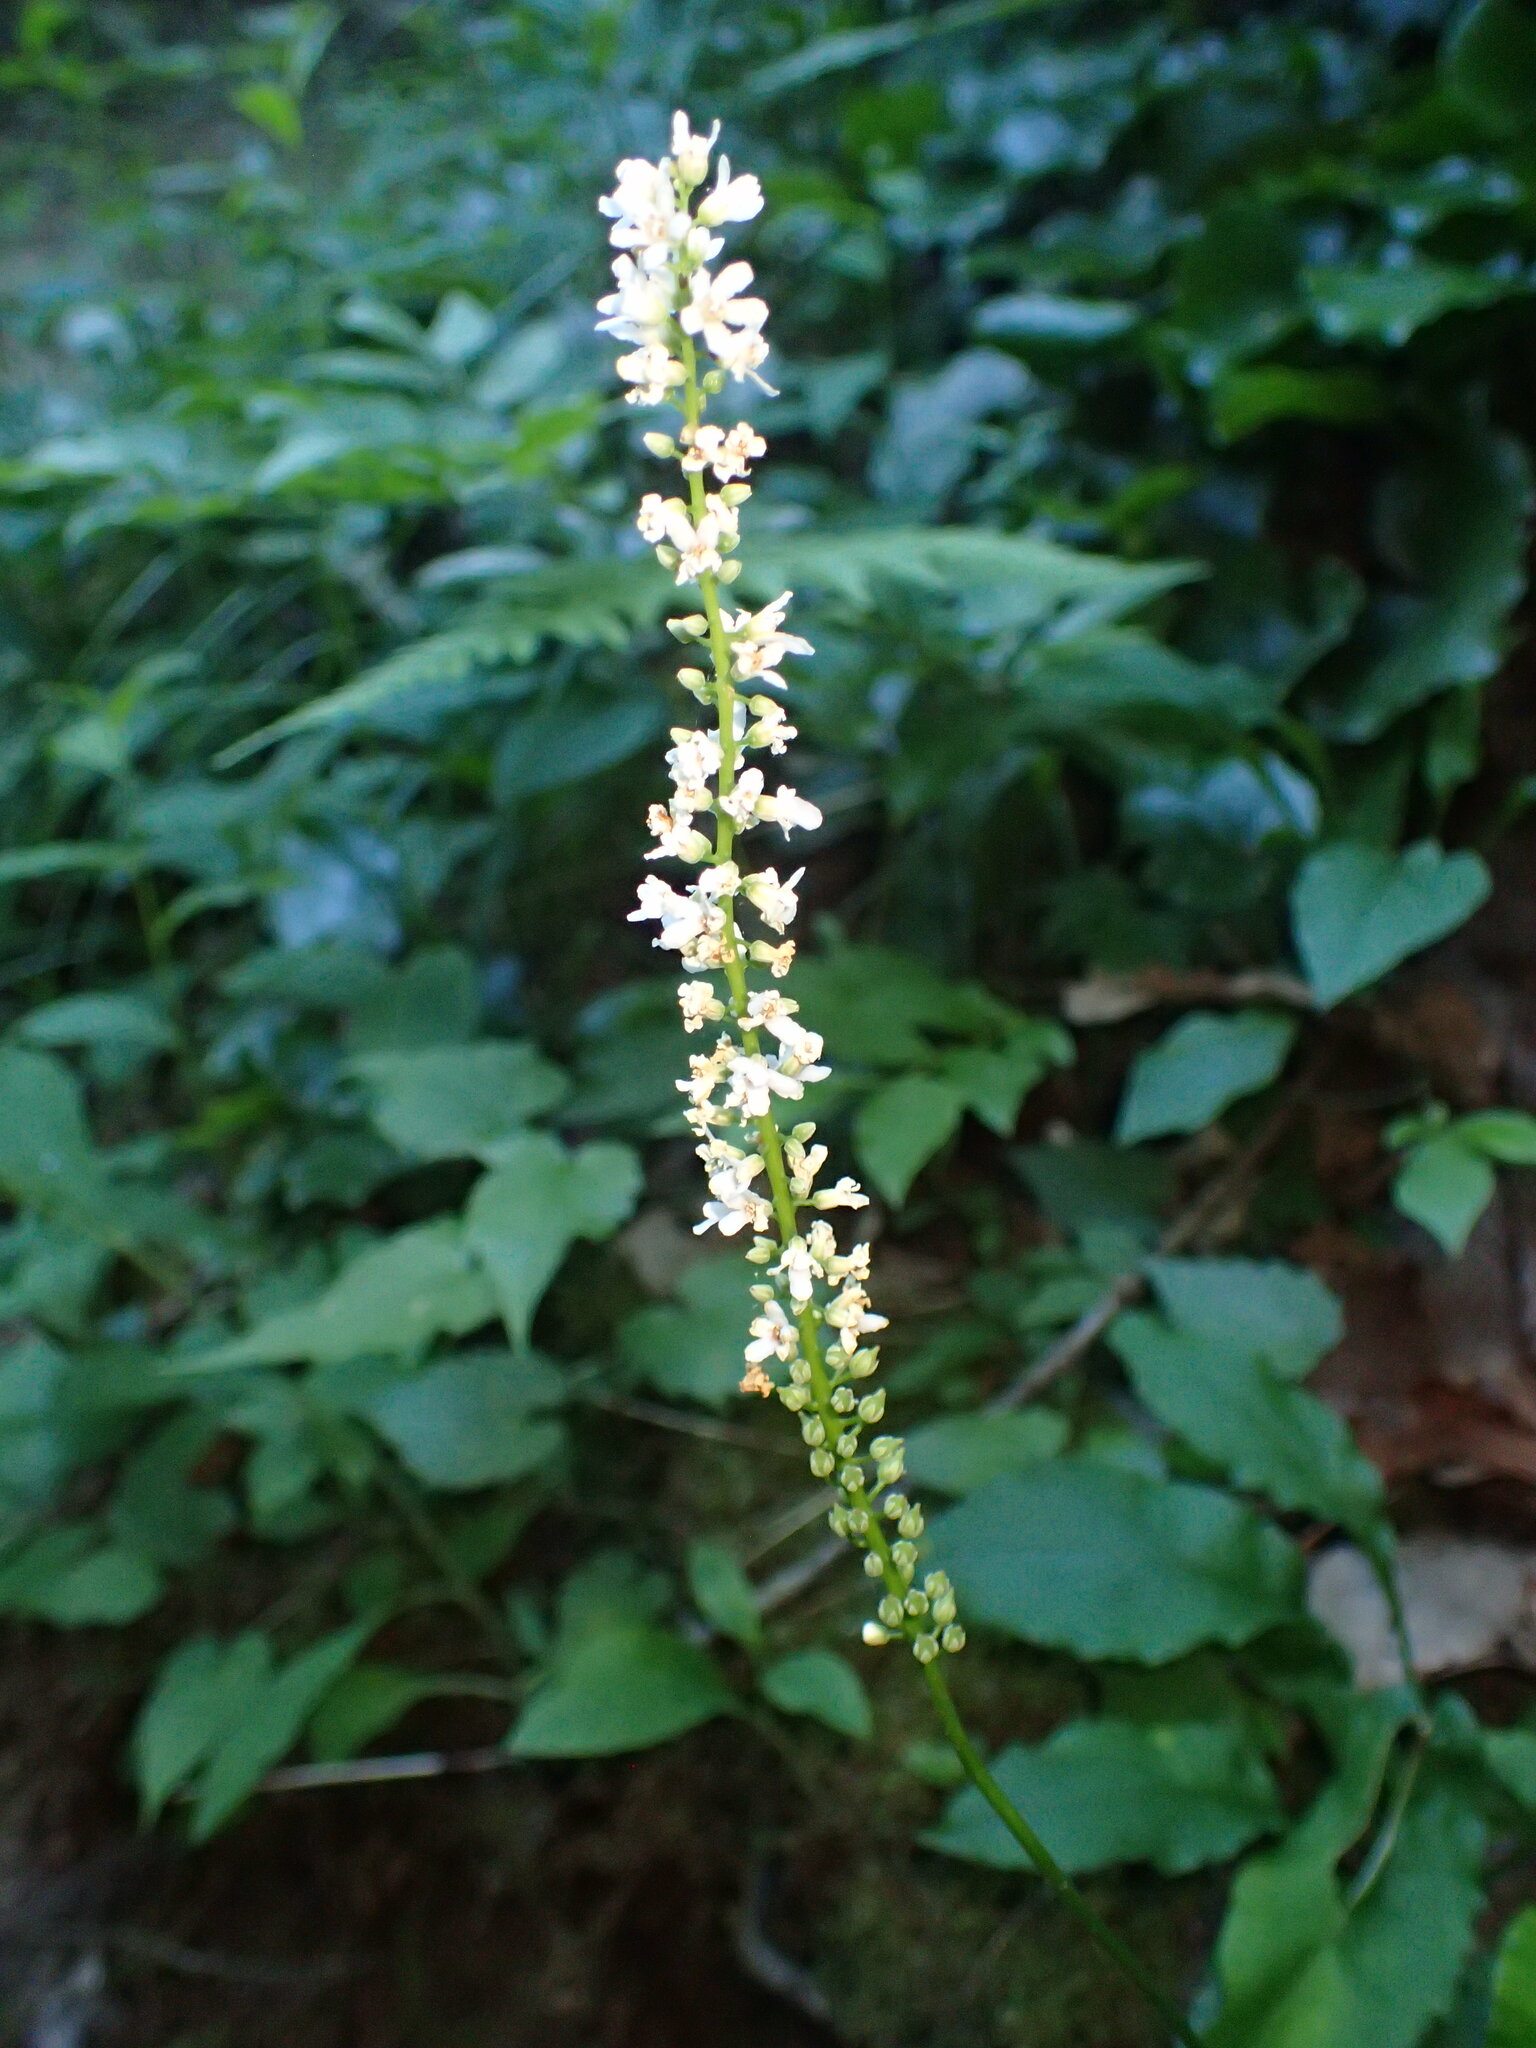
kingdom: Plantae
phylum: Tracheophyta
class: Magnoliopsida
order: Ericales
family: Diapensiaceae
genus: Galax
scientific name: Galax urceolata
